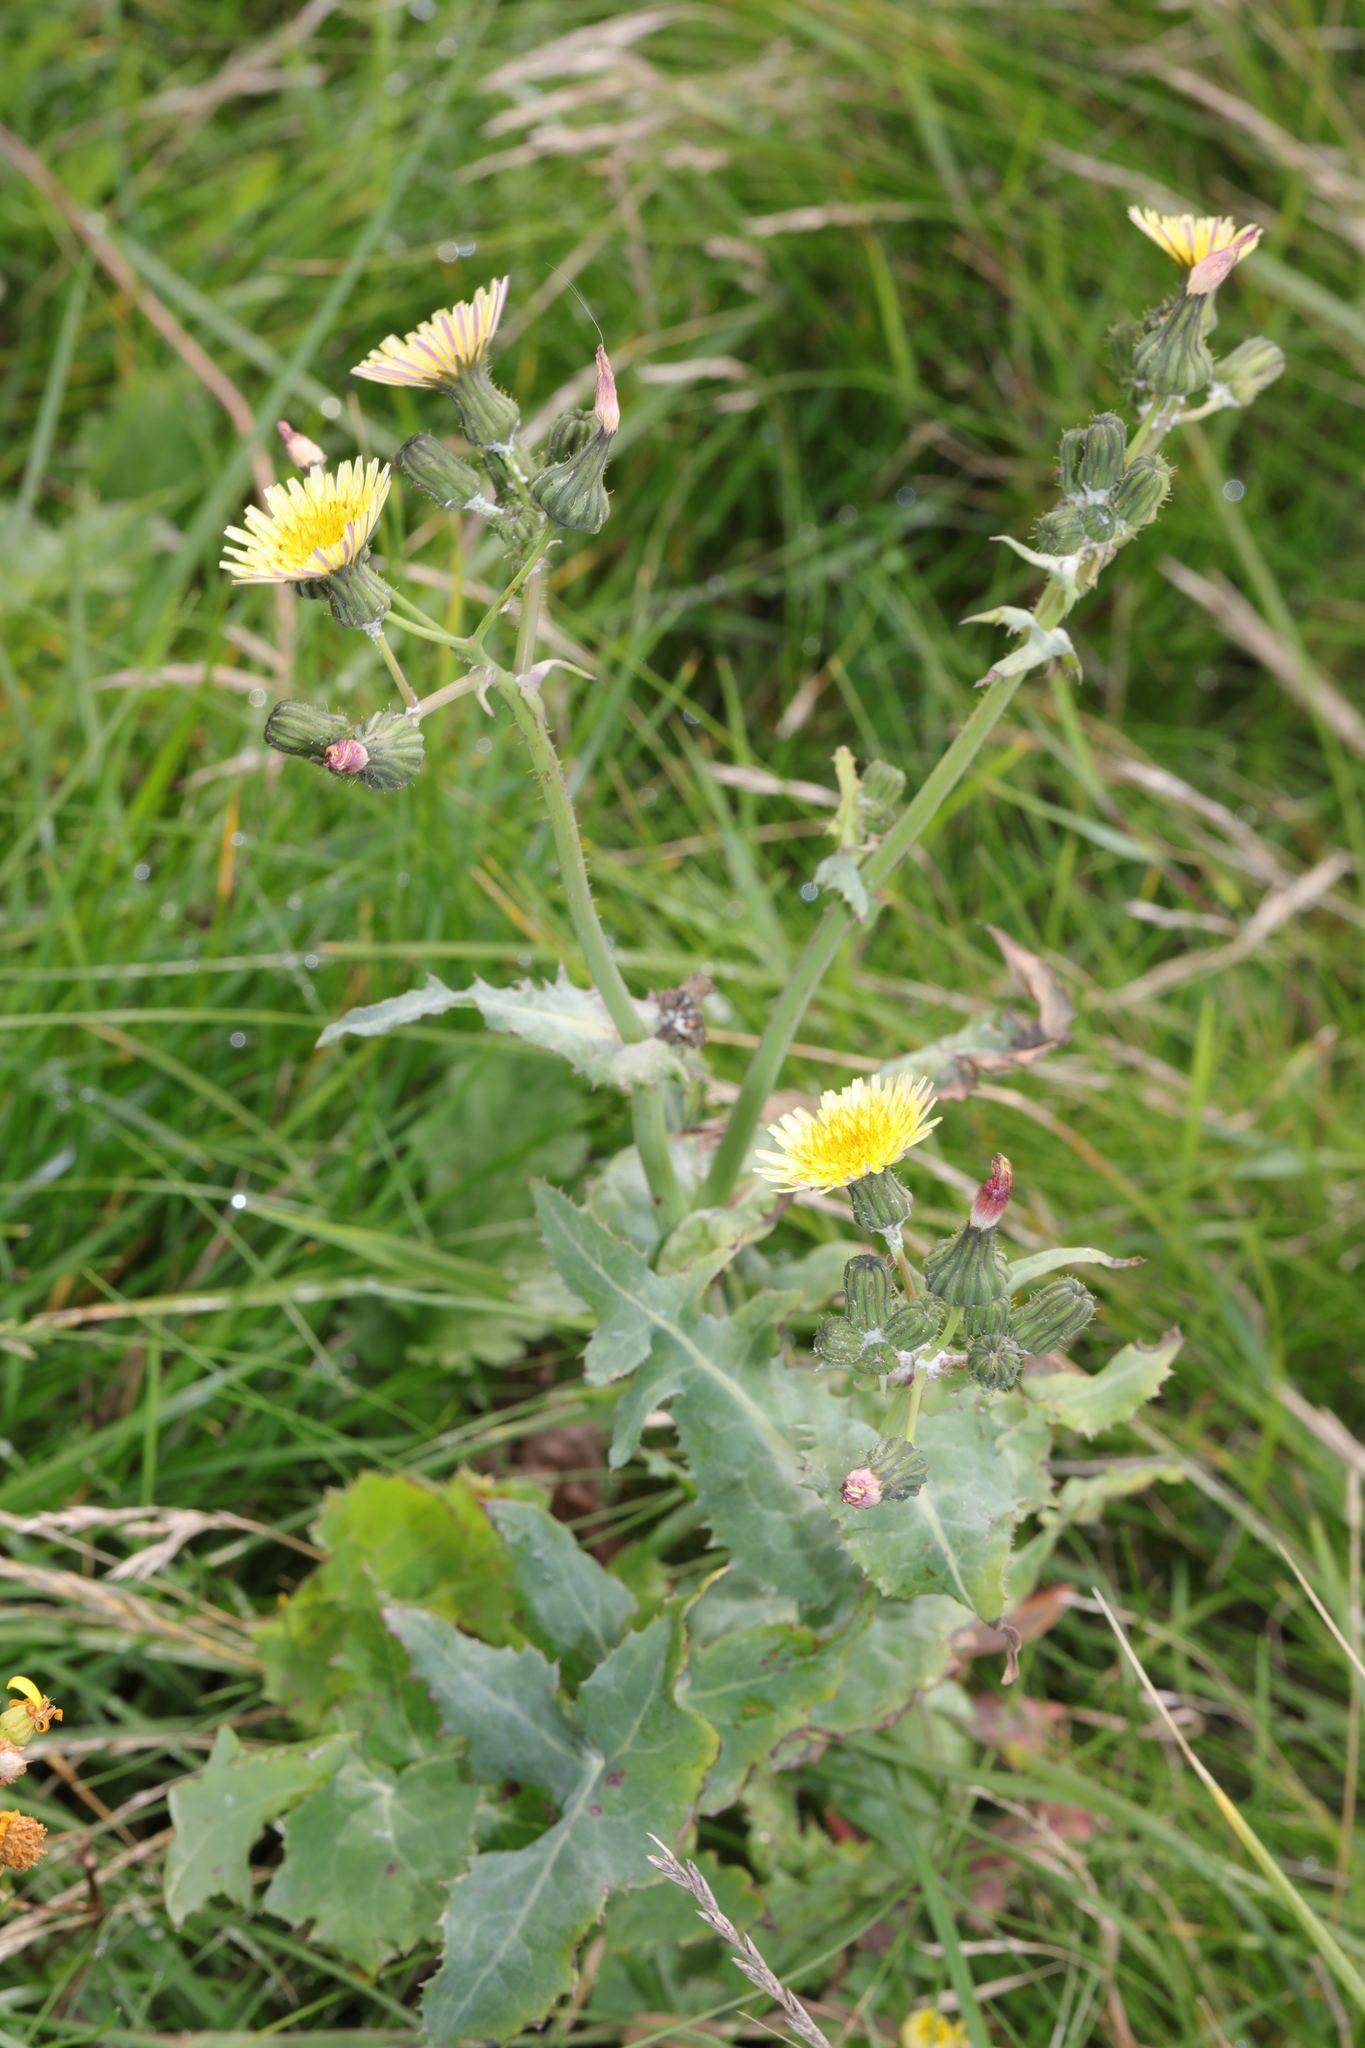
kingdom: Plantae
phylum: Tracheophyta
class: Magnoliopsida
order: Asterales
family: Asteraceae
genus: Sonchus
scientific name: Sonchus oleraceus
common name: Common sowthistle
